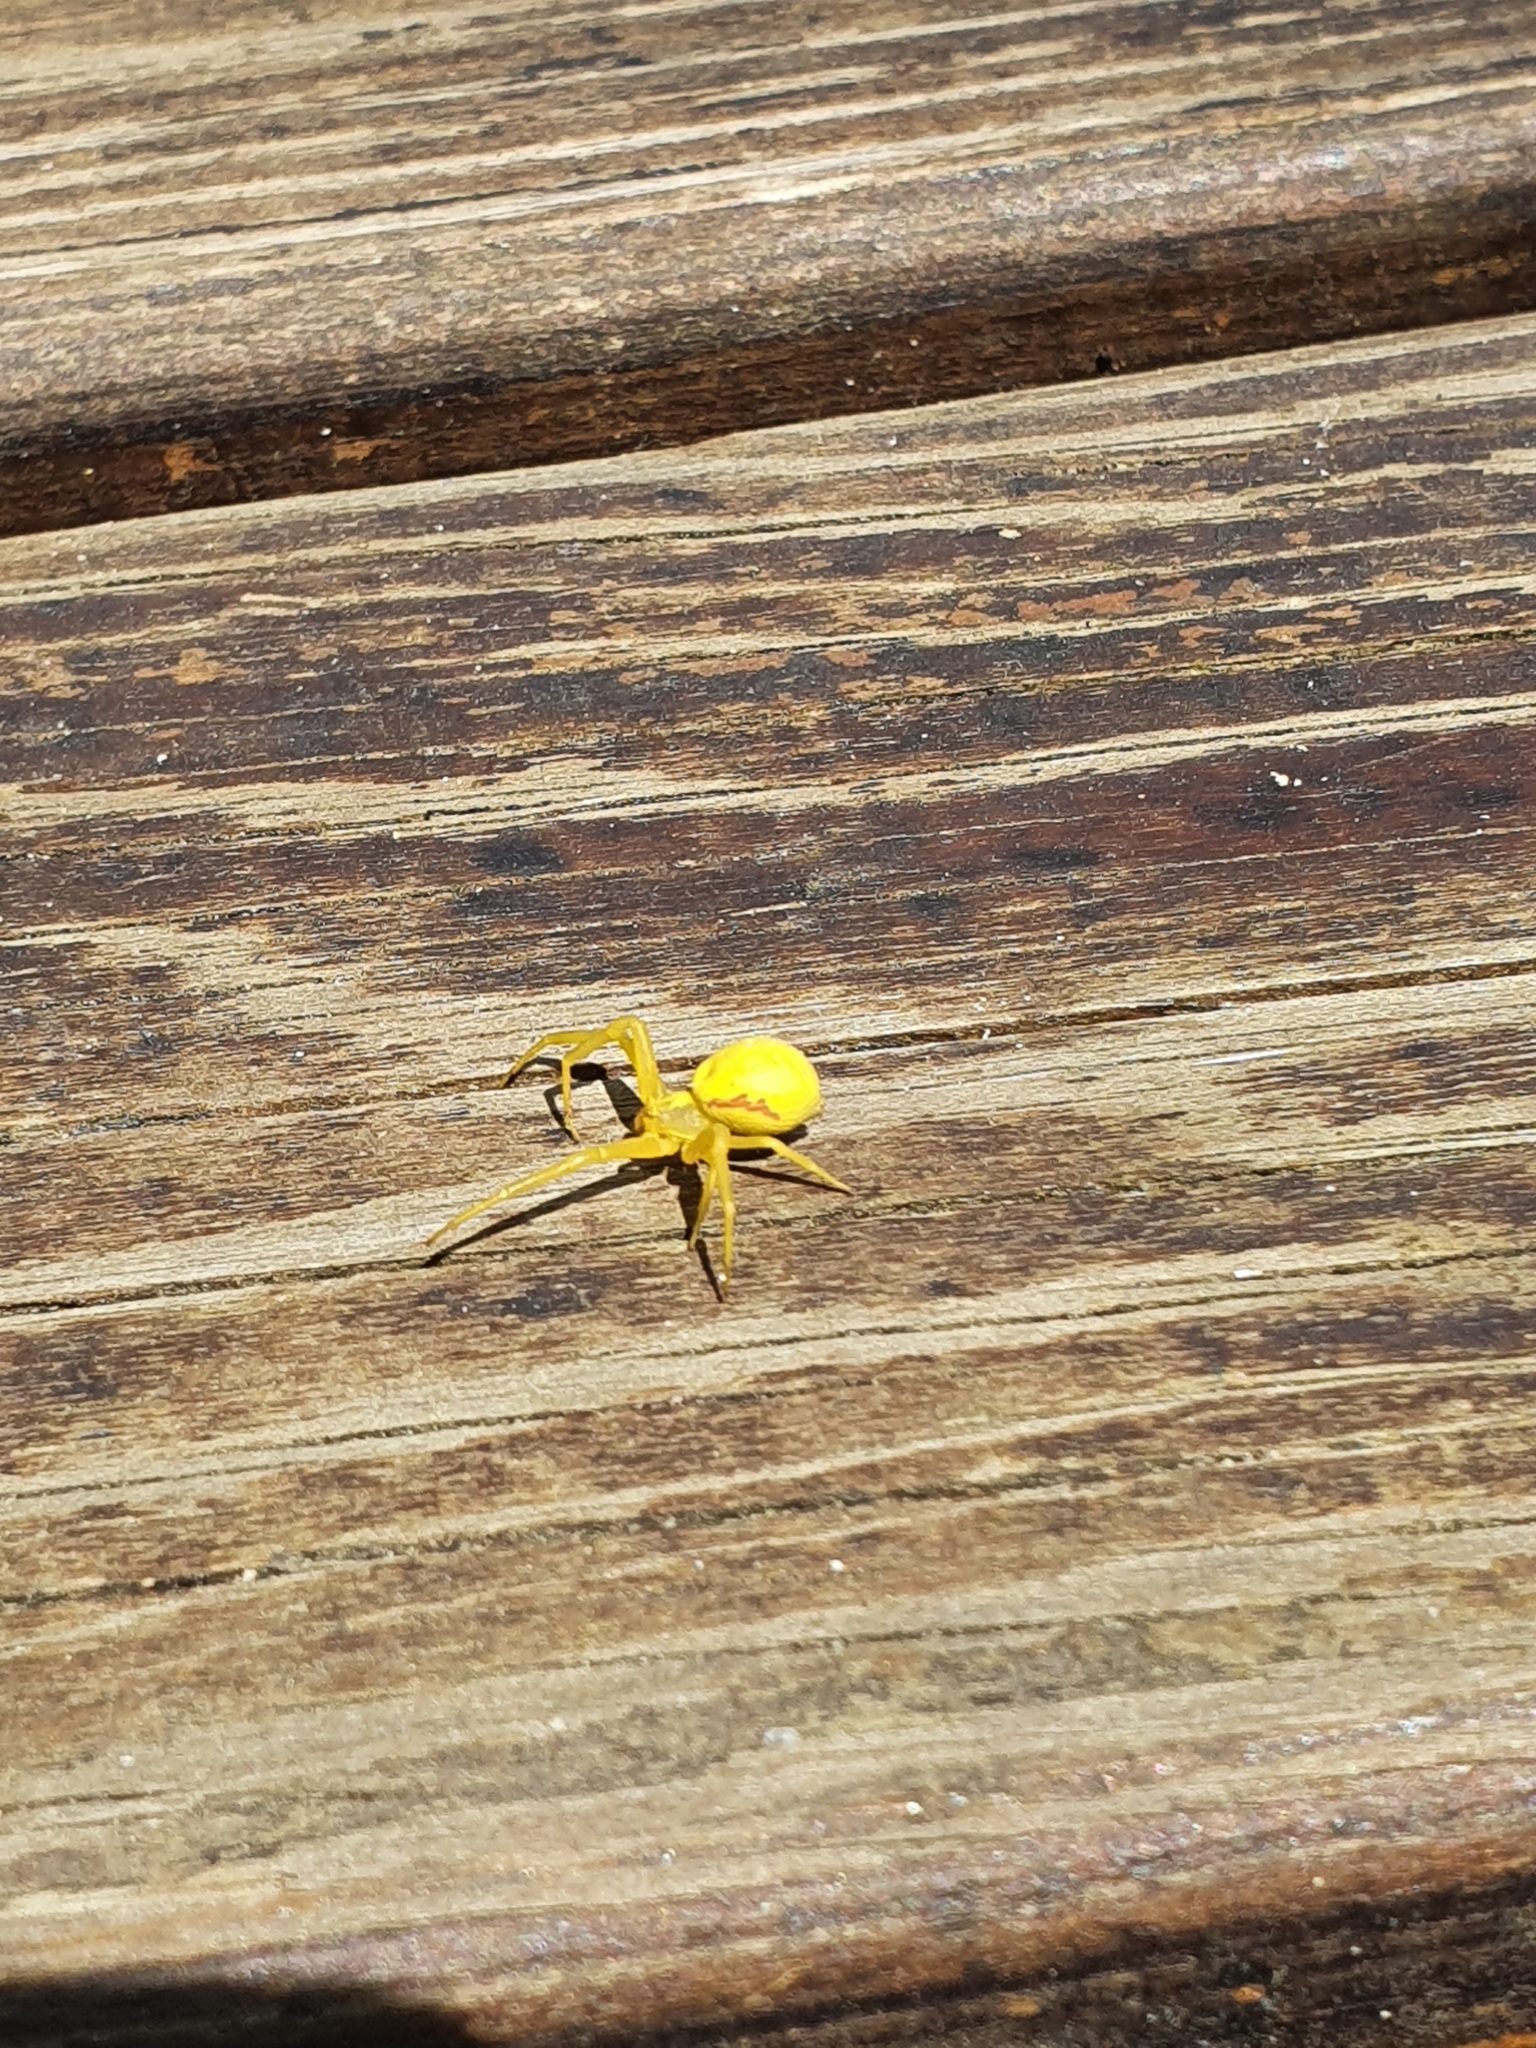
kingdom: Animalia
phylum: Arthropoda
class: Arachnida
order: Araneae
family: Thomisidae
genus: Misumena
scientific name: Misumena vatia
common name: Goldenrod crab spider
